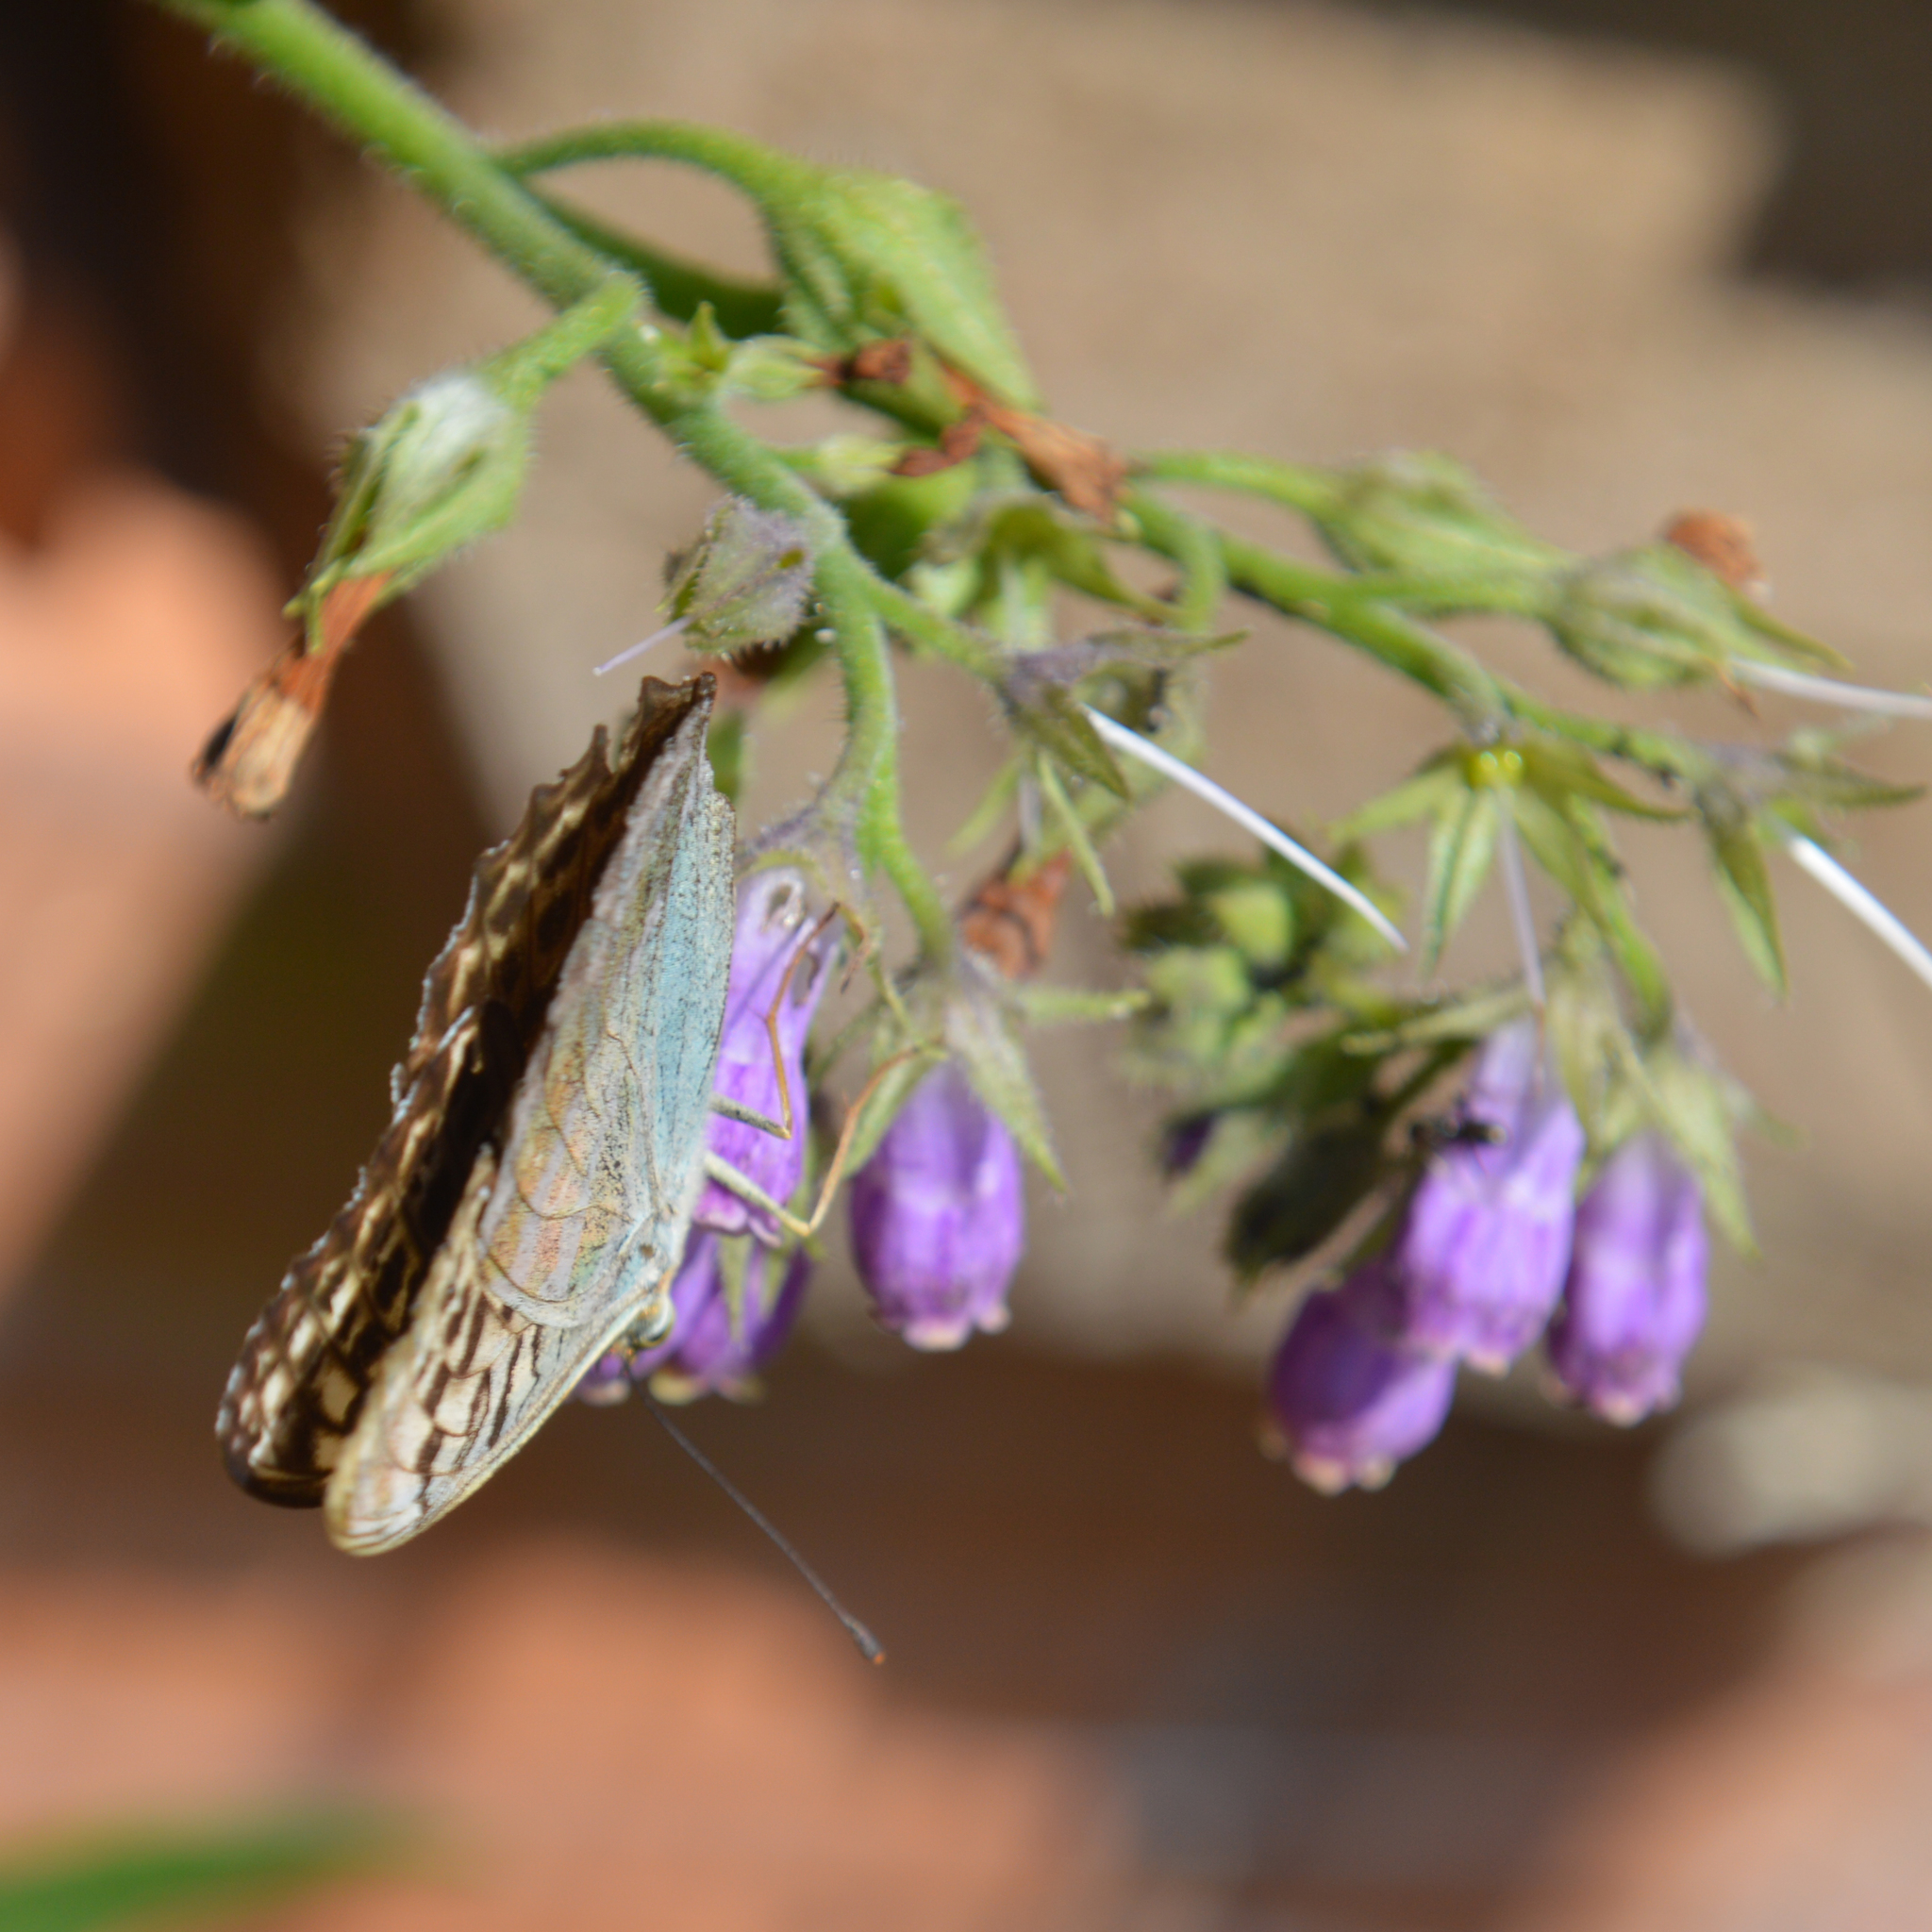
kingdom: Animalia
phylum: Arthropoda
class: Insecta
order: Lepidoptera
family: Nymphalidae
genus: Argynnis
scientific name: Argynnis paphia
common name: Silver-washed fritillary
